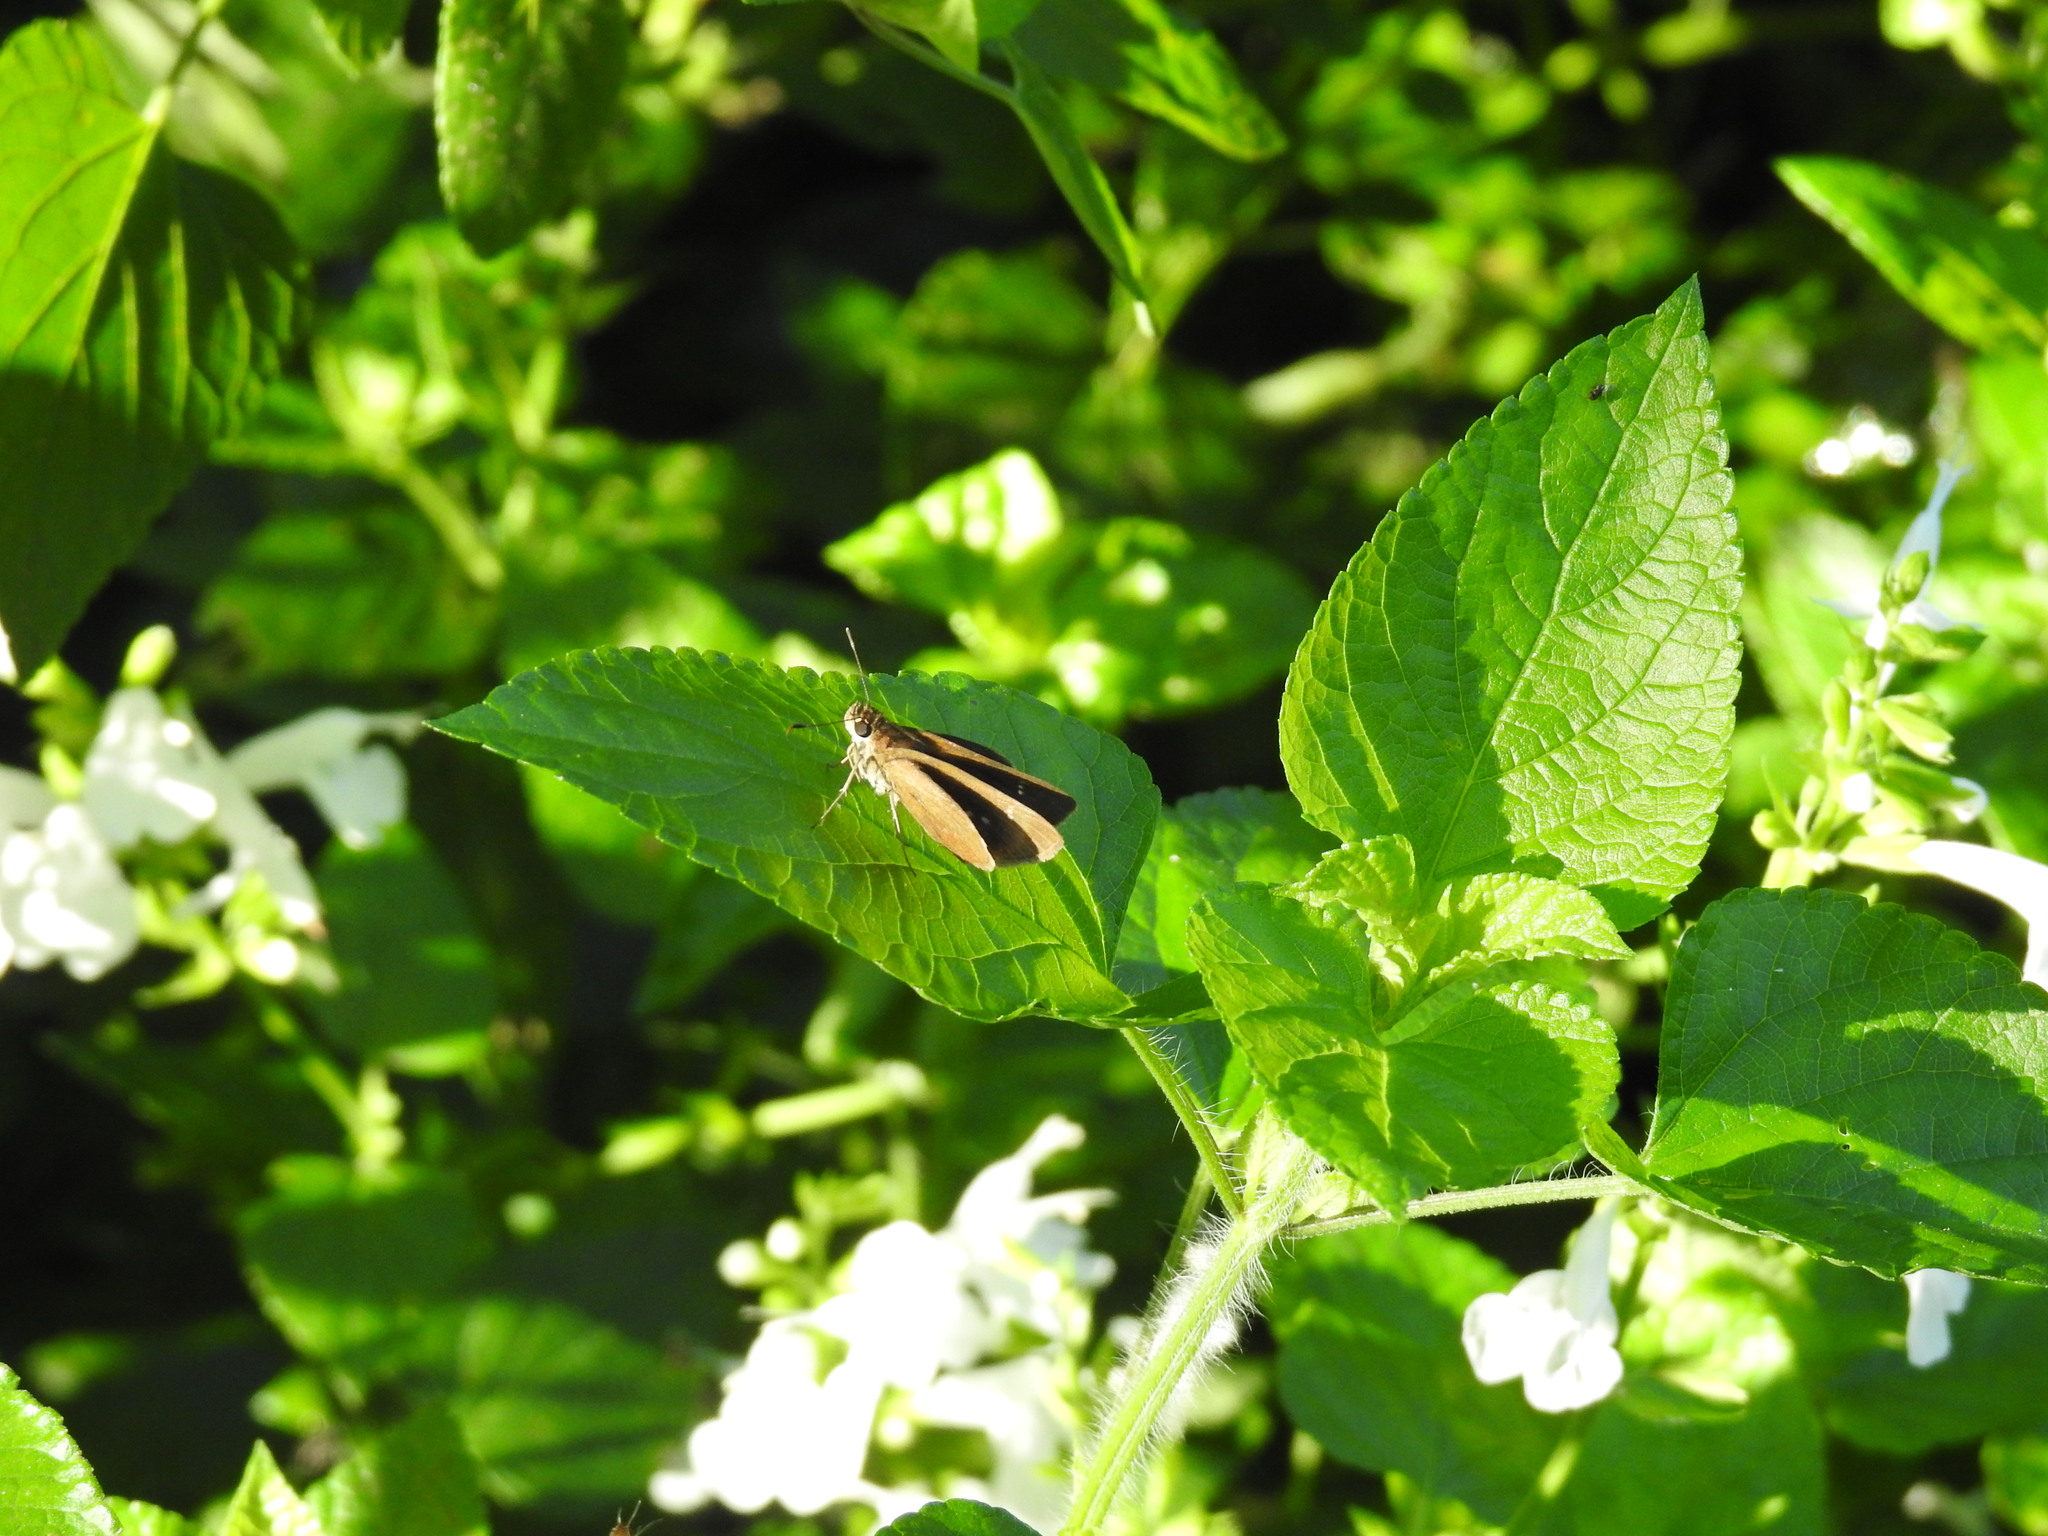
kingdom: Animalia
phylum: Arthropoda
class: Insecta
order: Lepidoptera
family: Hesperiidae
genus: Cymaenes
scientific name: Cymaenes tripunctus
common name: Dingy dotted skipper
